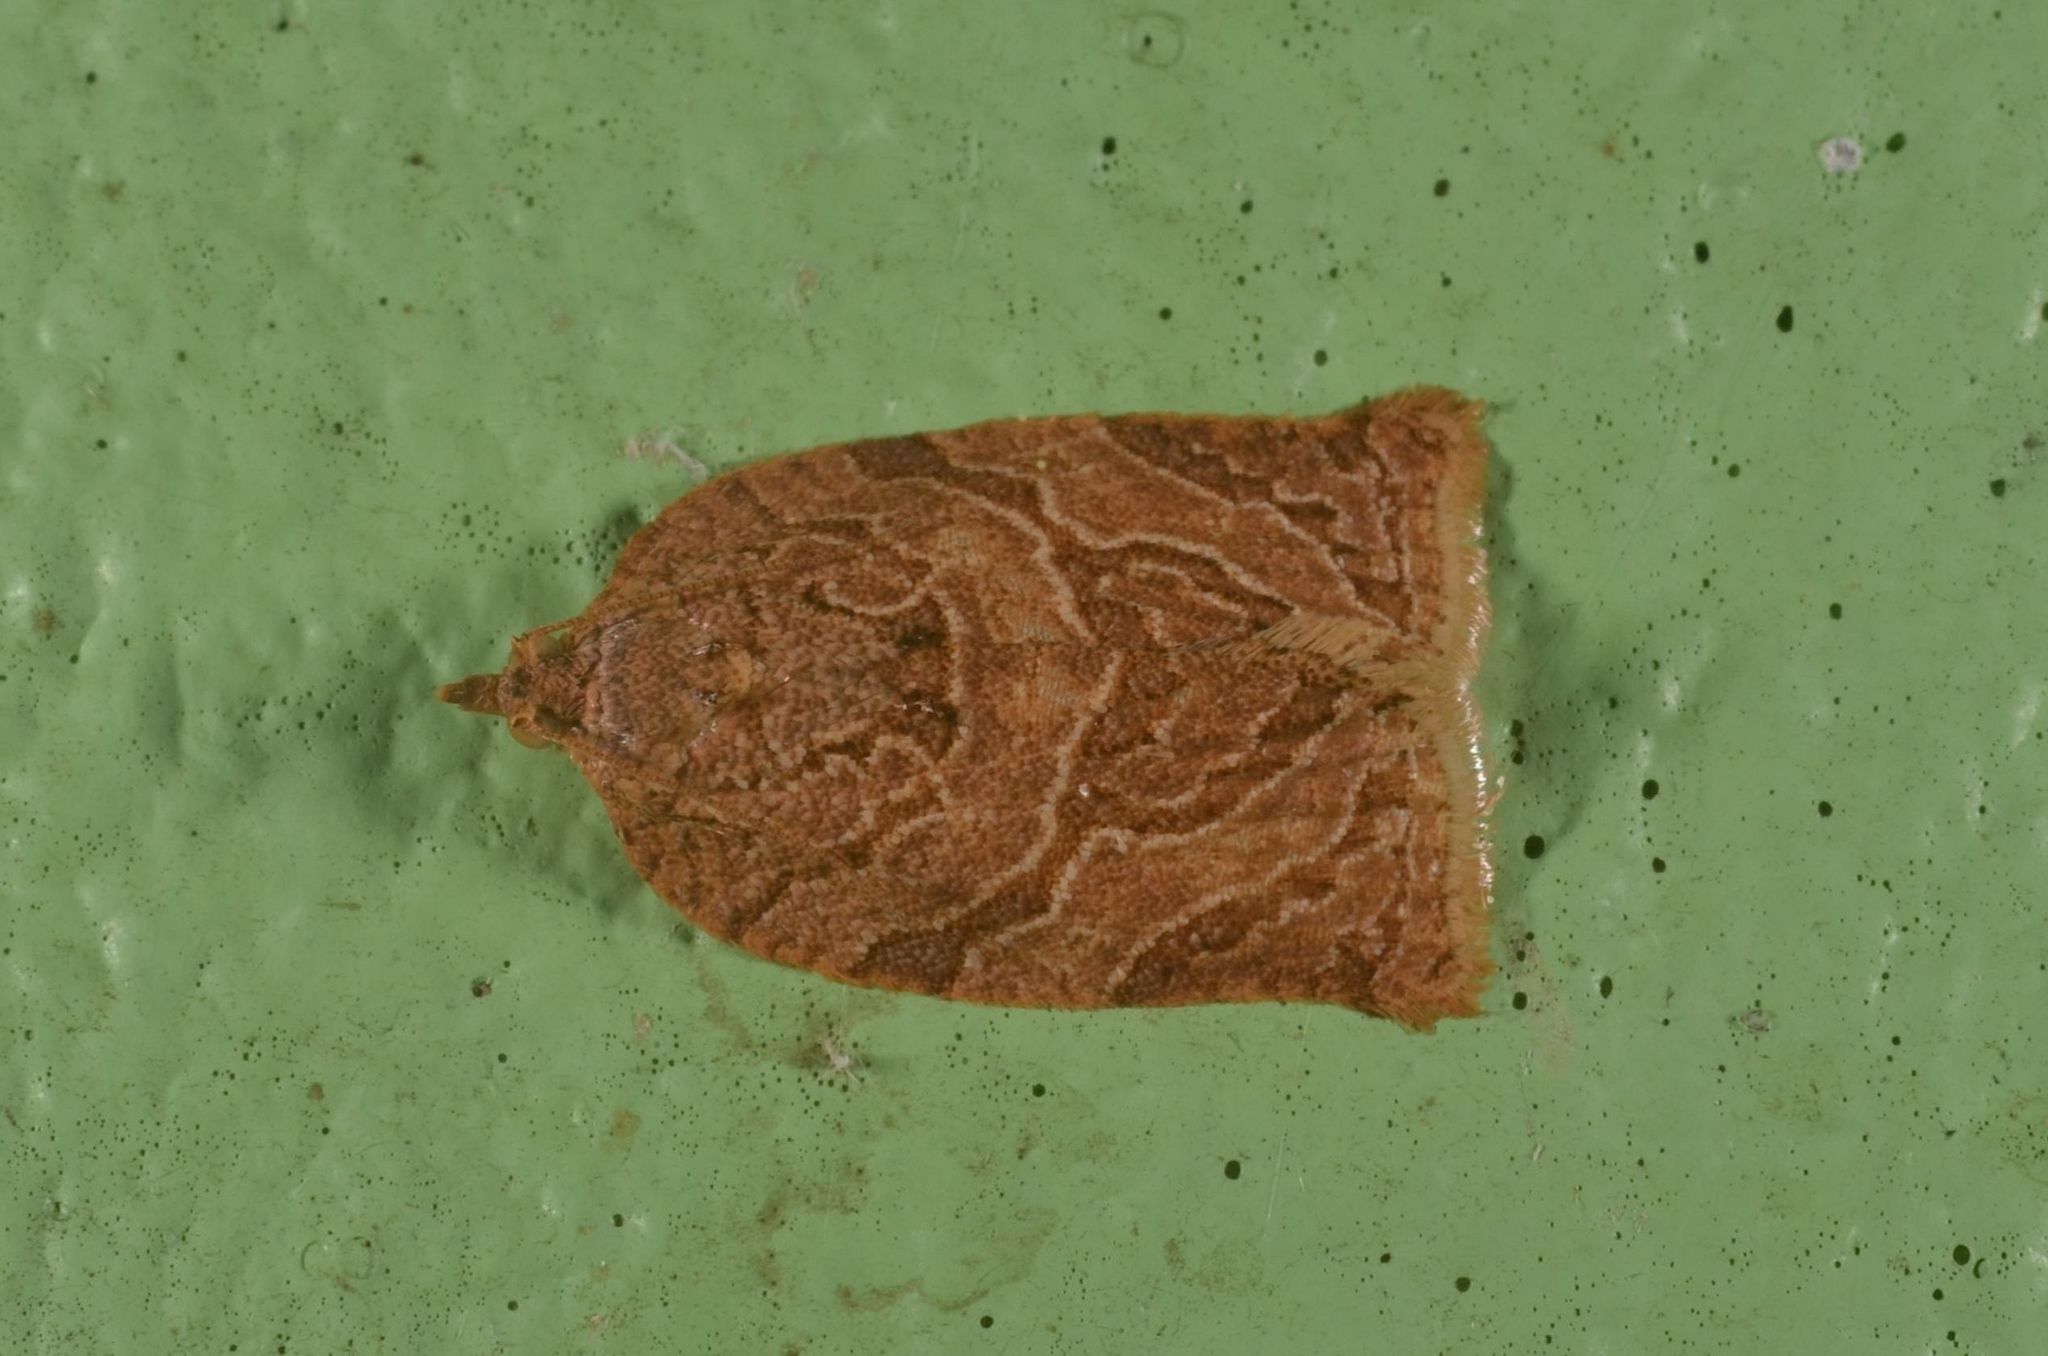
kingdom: Animalia
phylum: Arthropoda
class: Insecta
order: Lepidoptera
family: Tortricidae
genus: Adoxophyes
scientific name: Adoxophyes privatana
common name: Asian orchid tortrix
